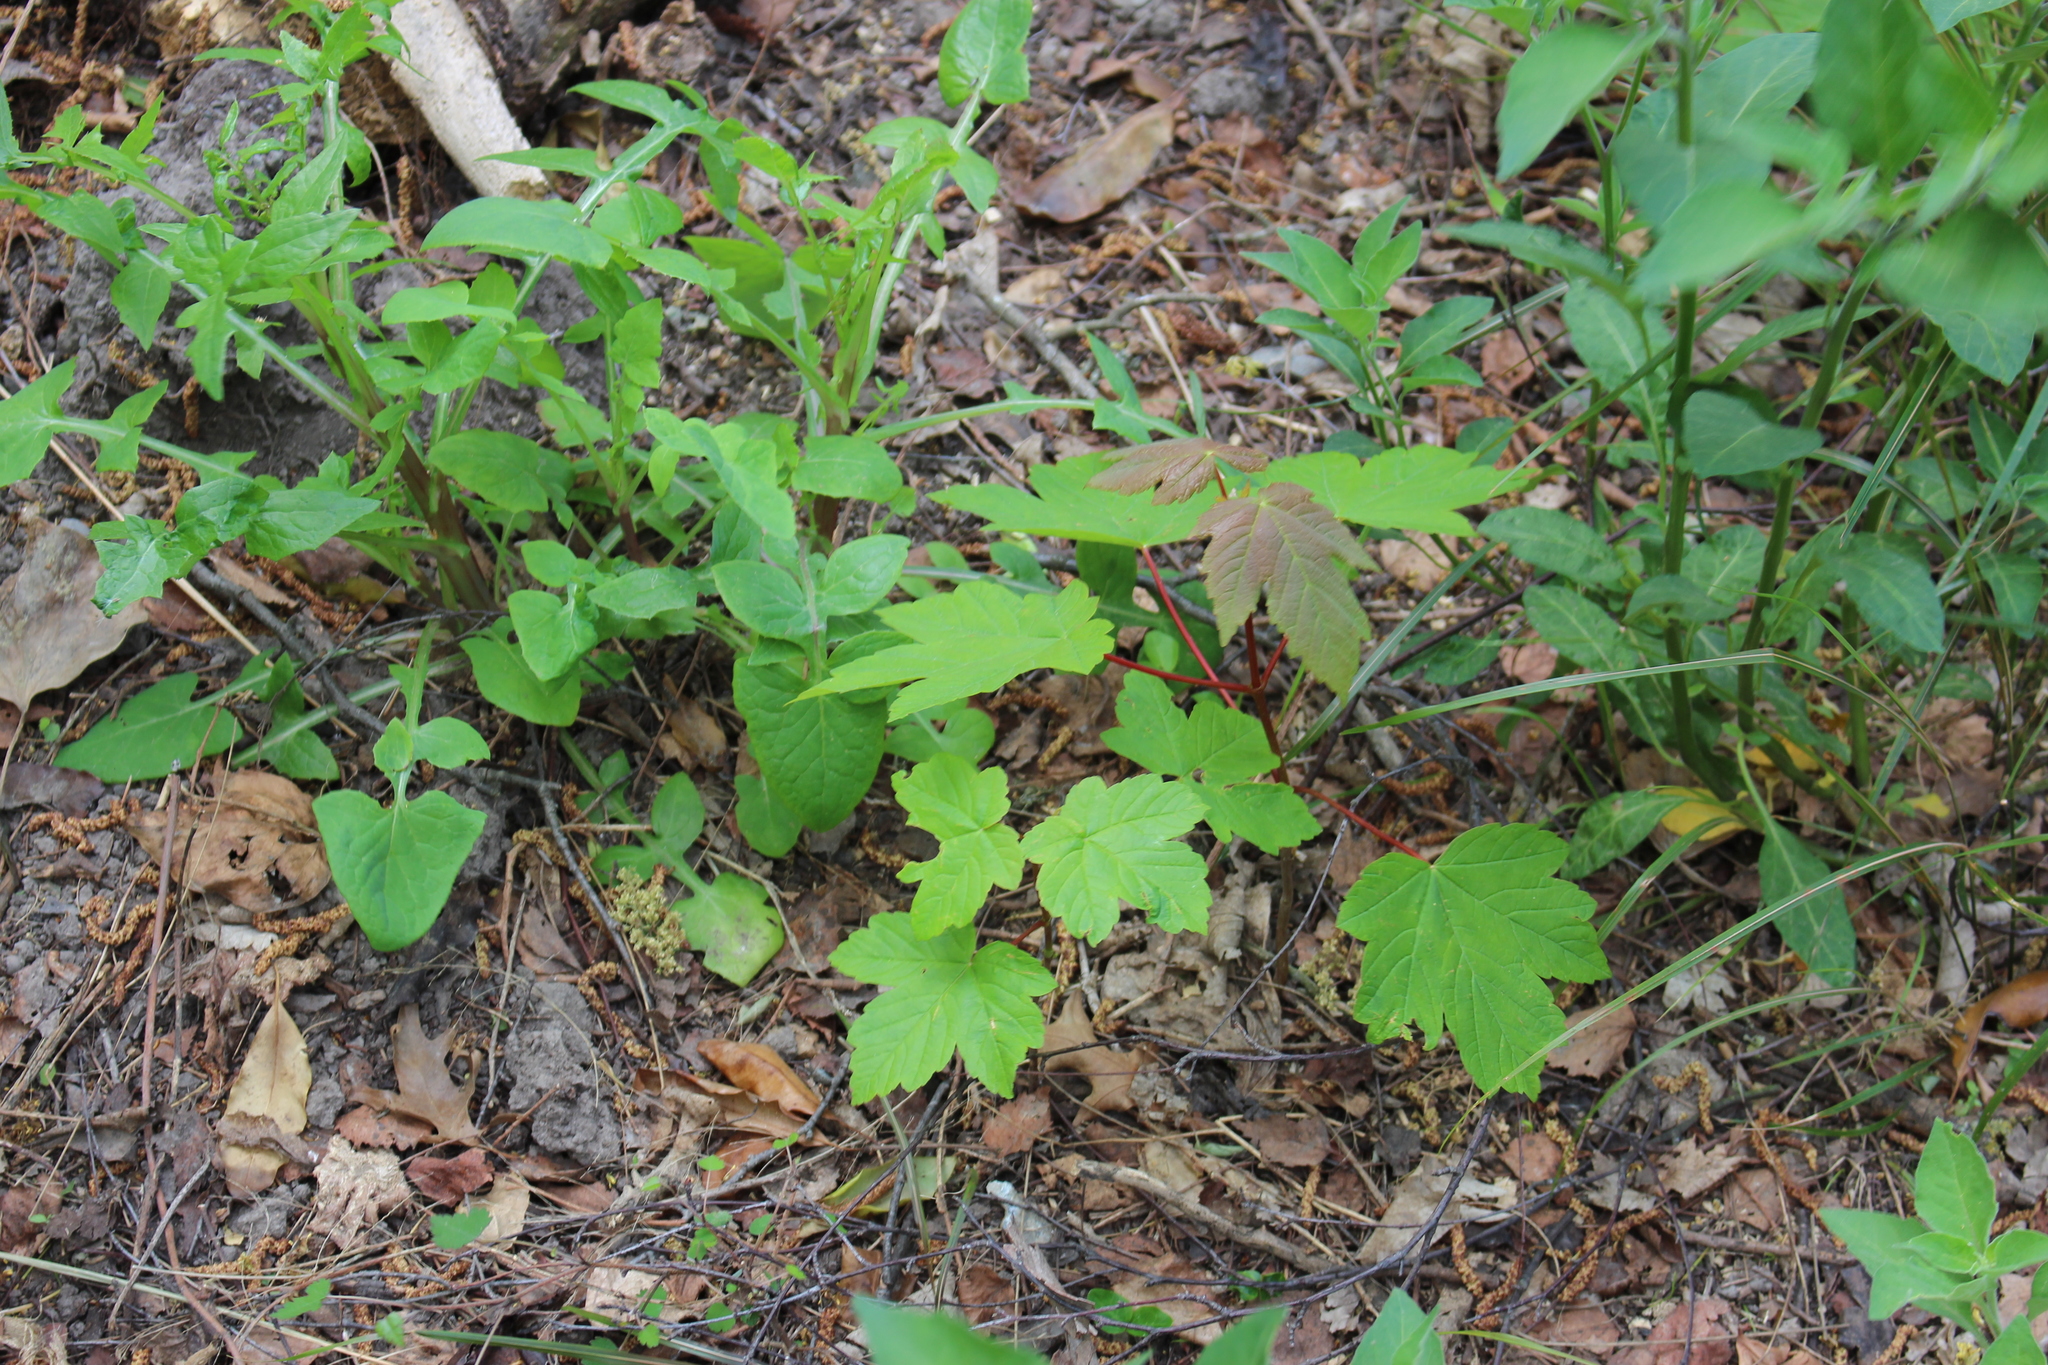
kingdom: Plantae
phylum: Tracheophyta
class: Magnoliopsida
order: Sapindales
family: Sapindaceae
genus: Acer
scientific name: Acer negundo
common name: Ashleaf maple
